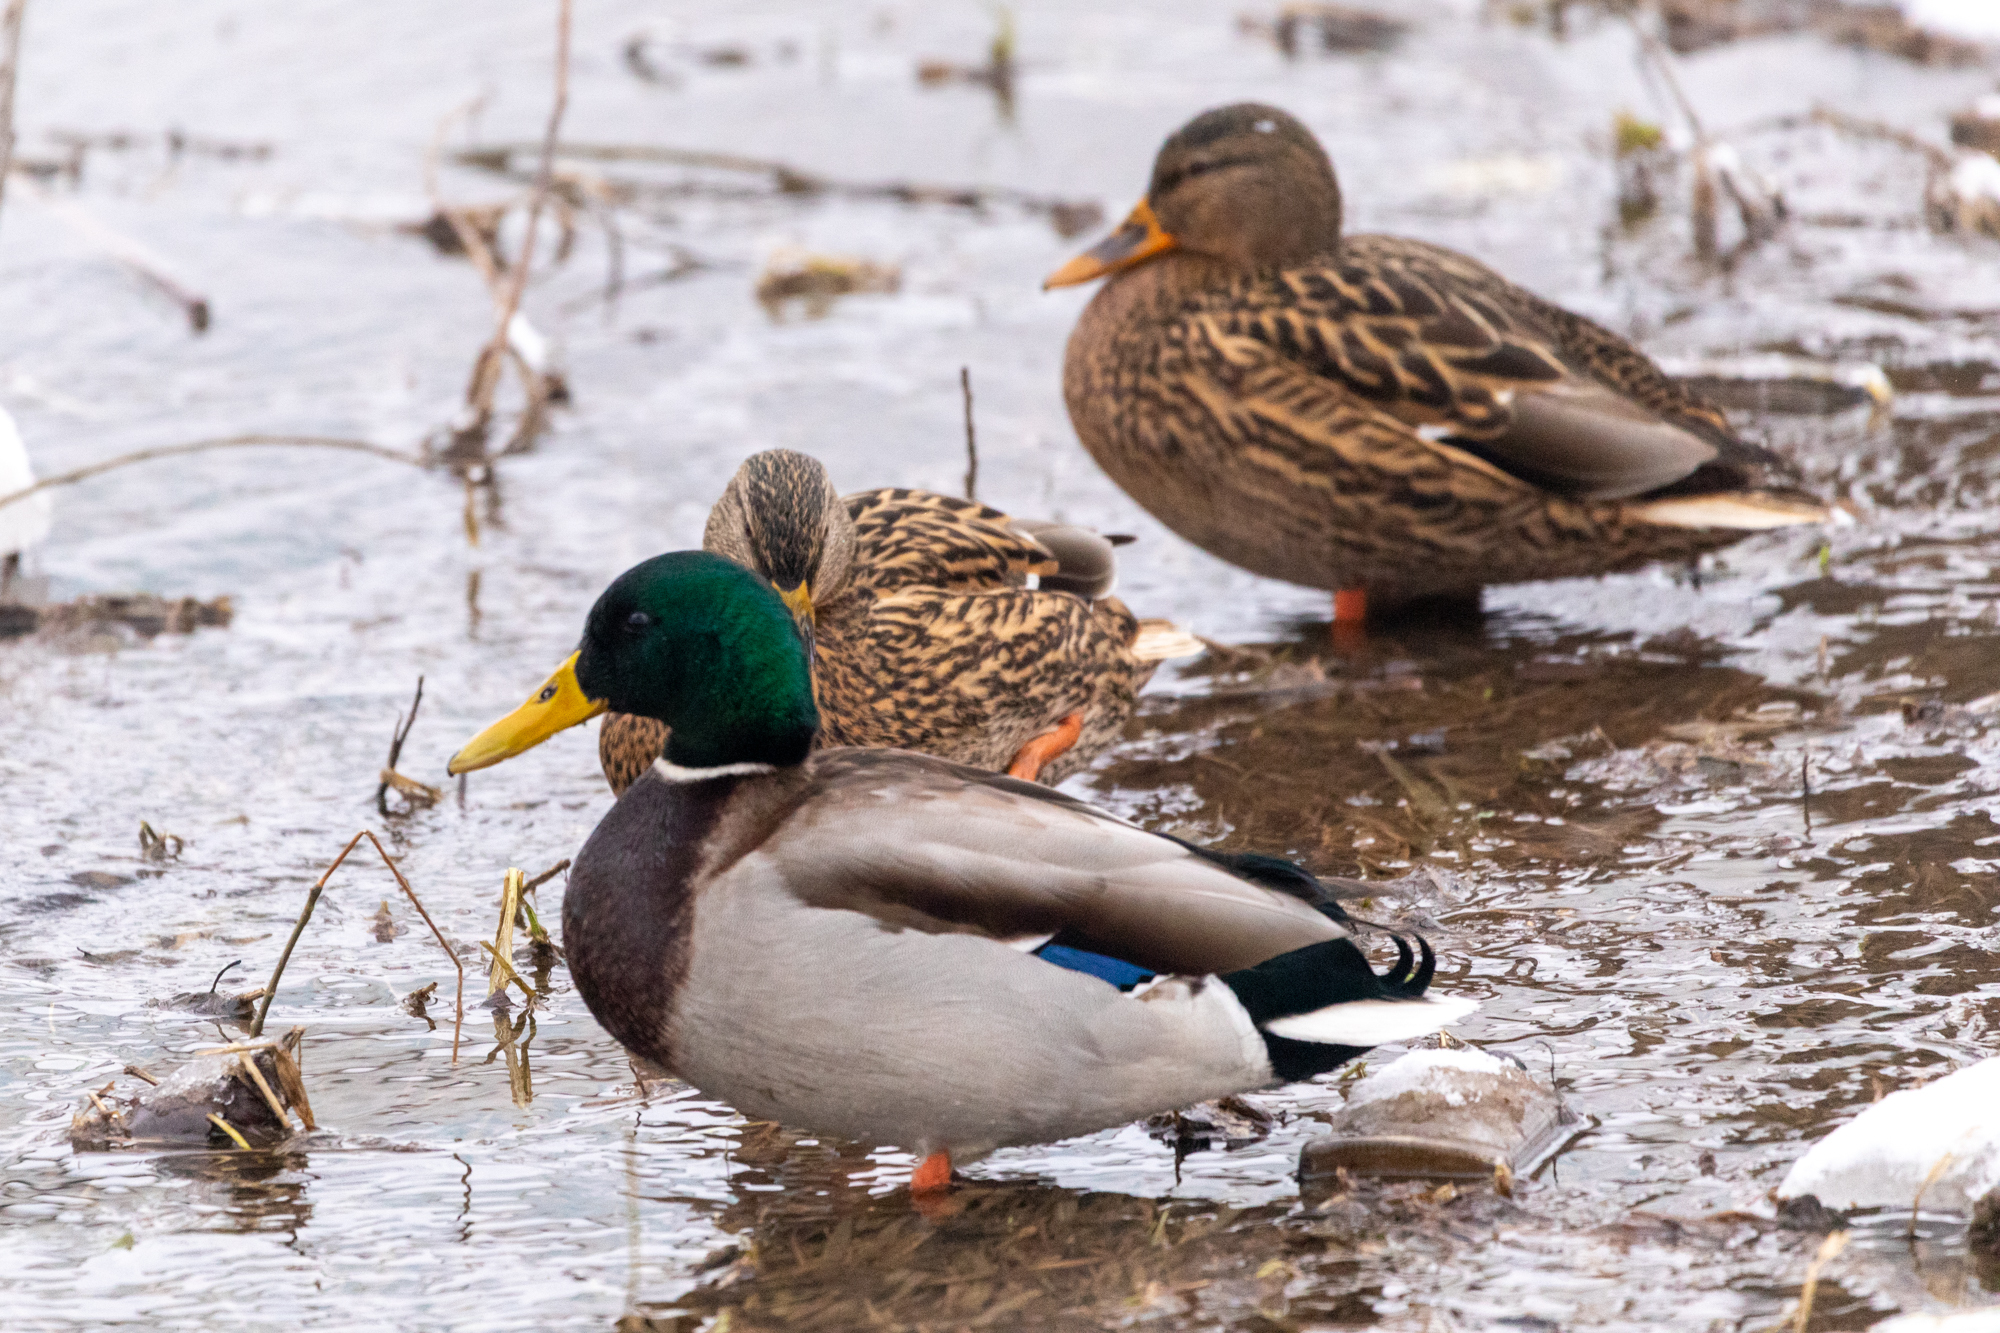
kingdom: Animalia
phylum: Chordata
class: Aves
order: Anseriformes
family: Anatidae
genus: Anas
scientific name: Anas platyrhynchos
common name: Mallard
